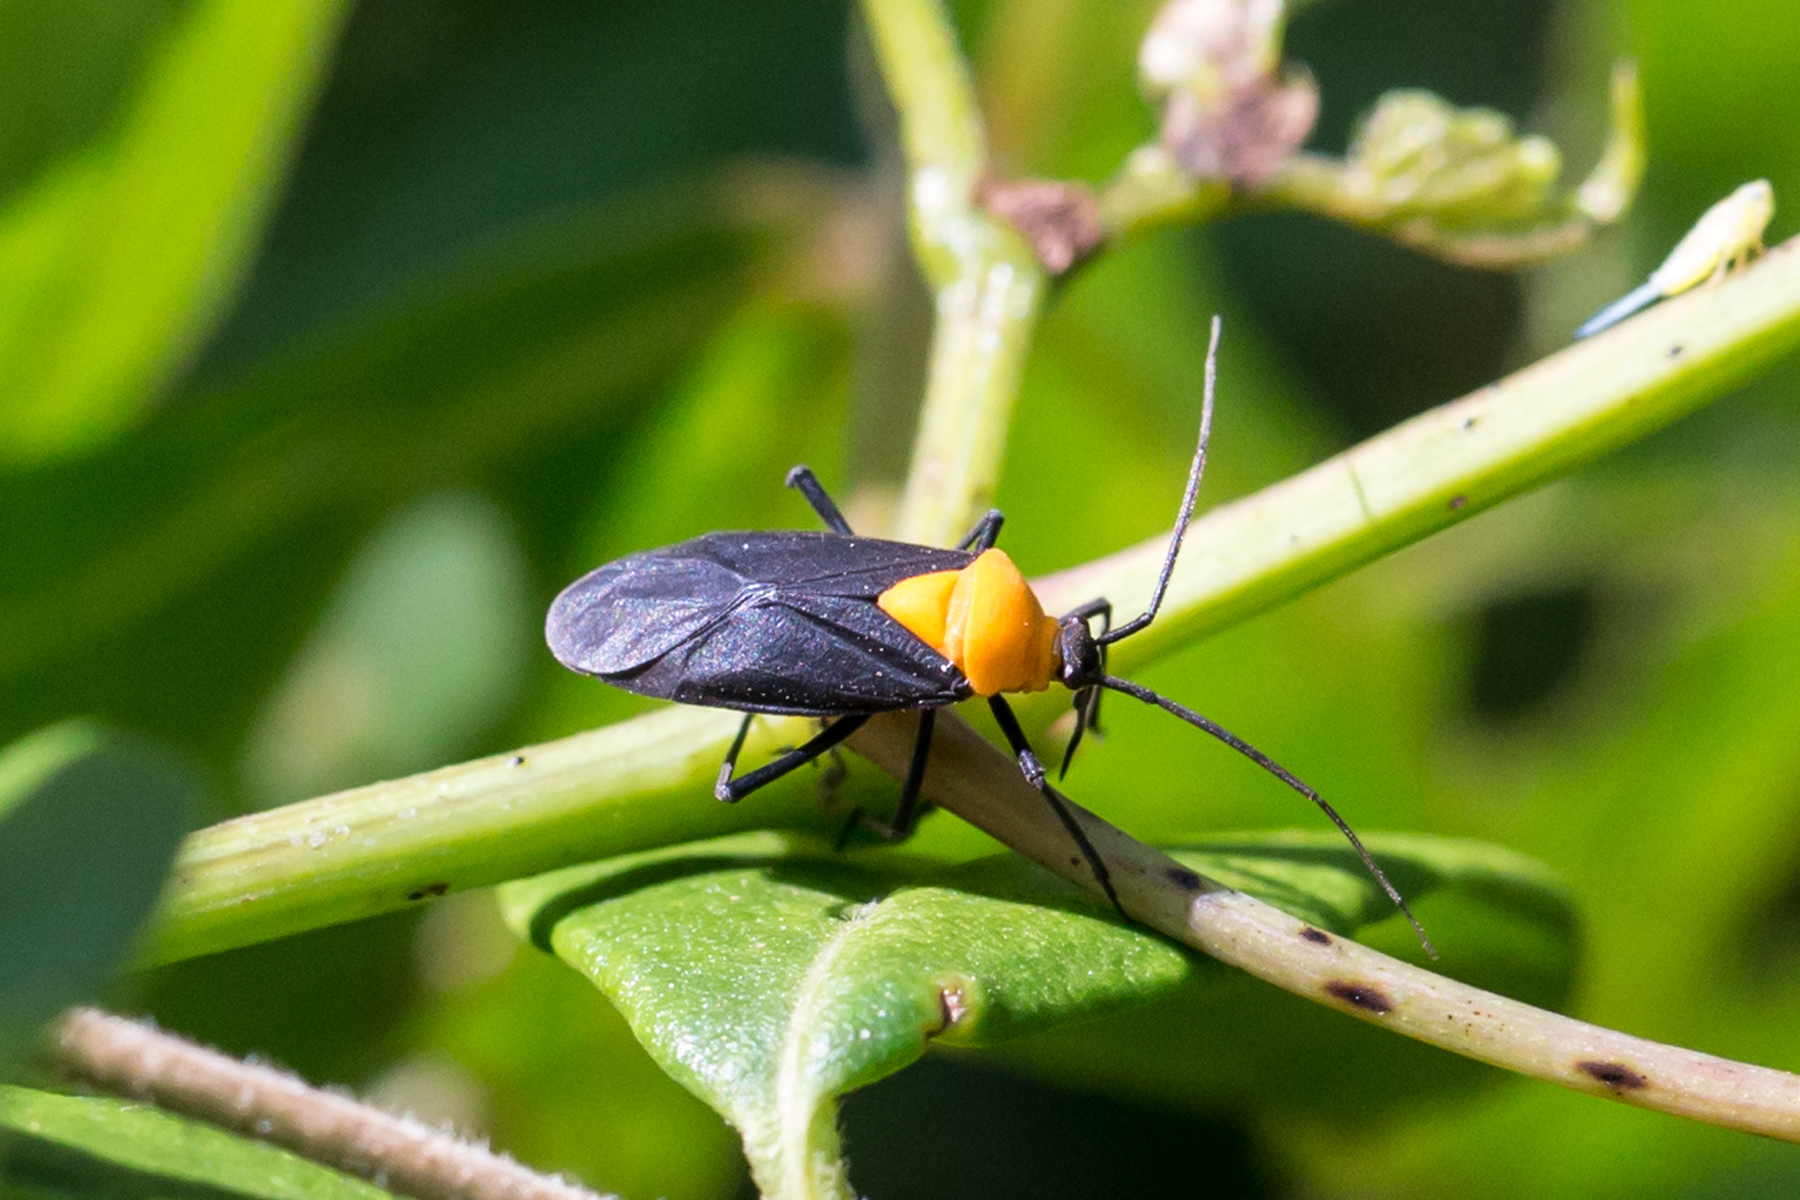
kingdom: Animalia
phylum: Arthropoda
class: Insecta
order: Hemiptera
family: Miridae
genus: Prepops
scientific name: Prepops insitivus
